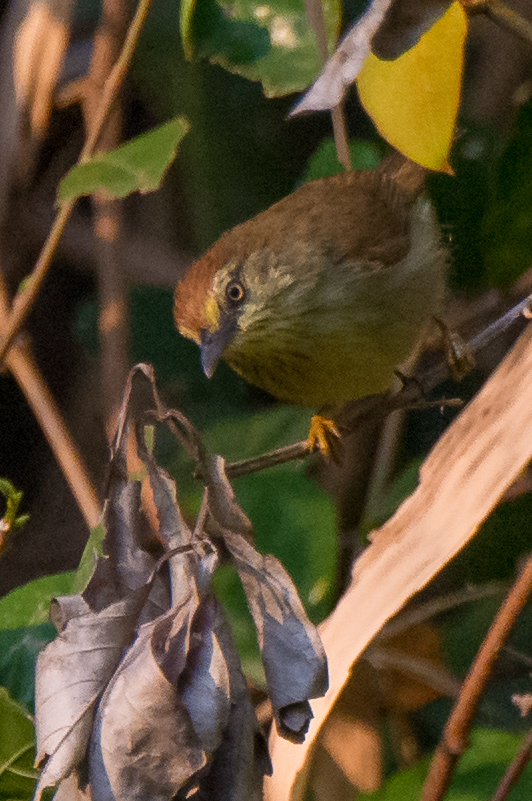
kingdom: Animalia
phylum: Chordata
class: Aves
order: Passeriformes
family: Timaliidae
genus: Macronus
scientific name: Macronus gularis
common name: Striped tit-babbler
